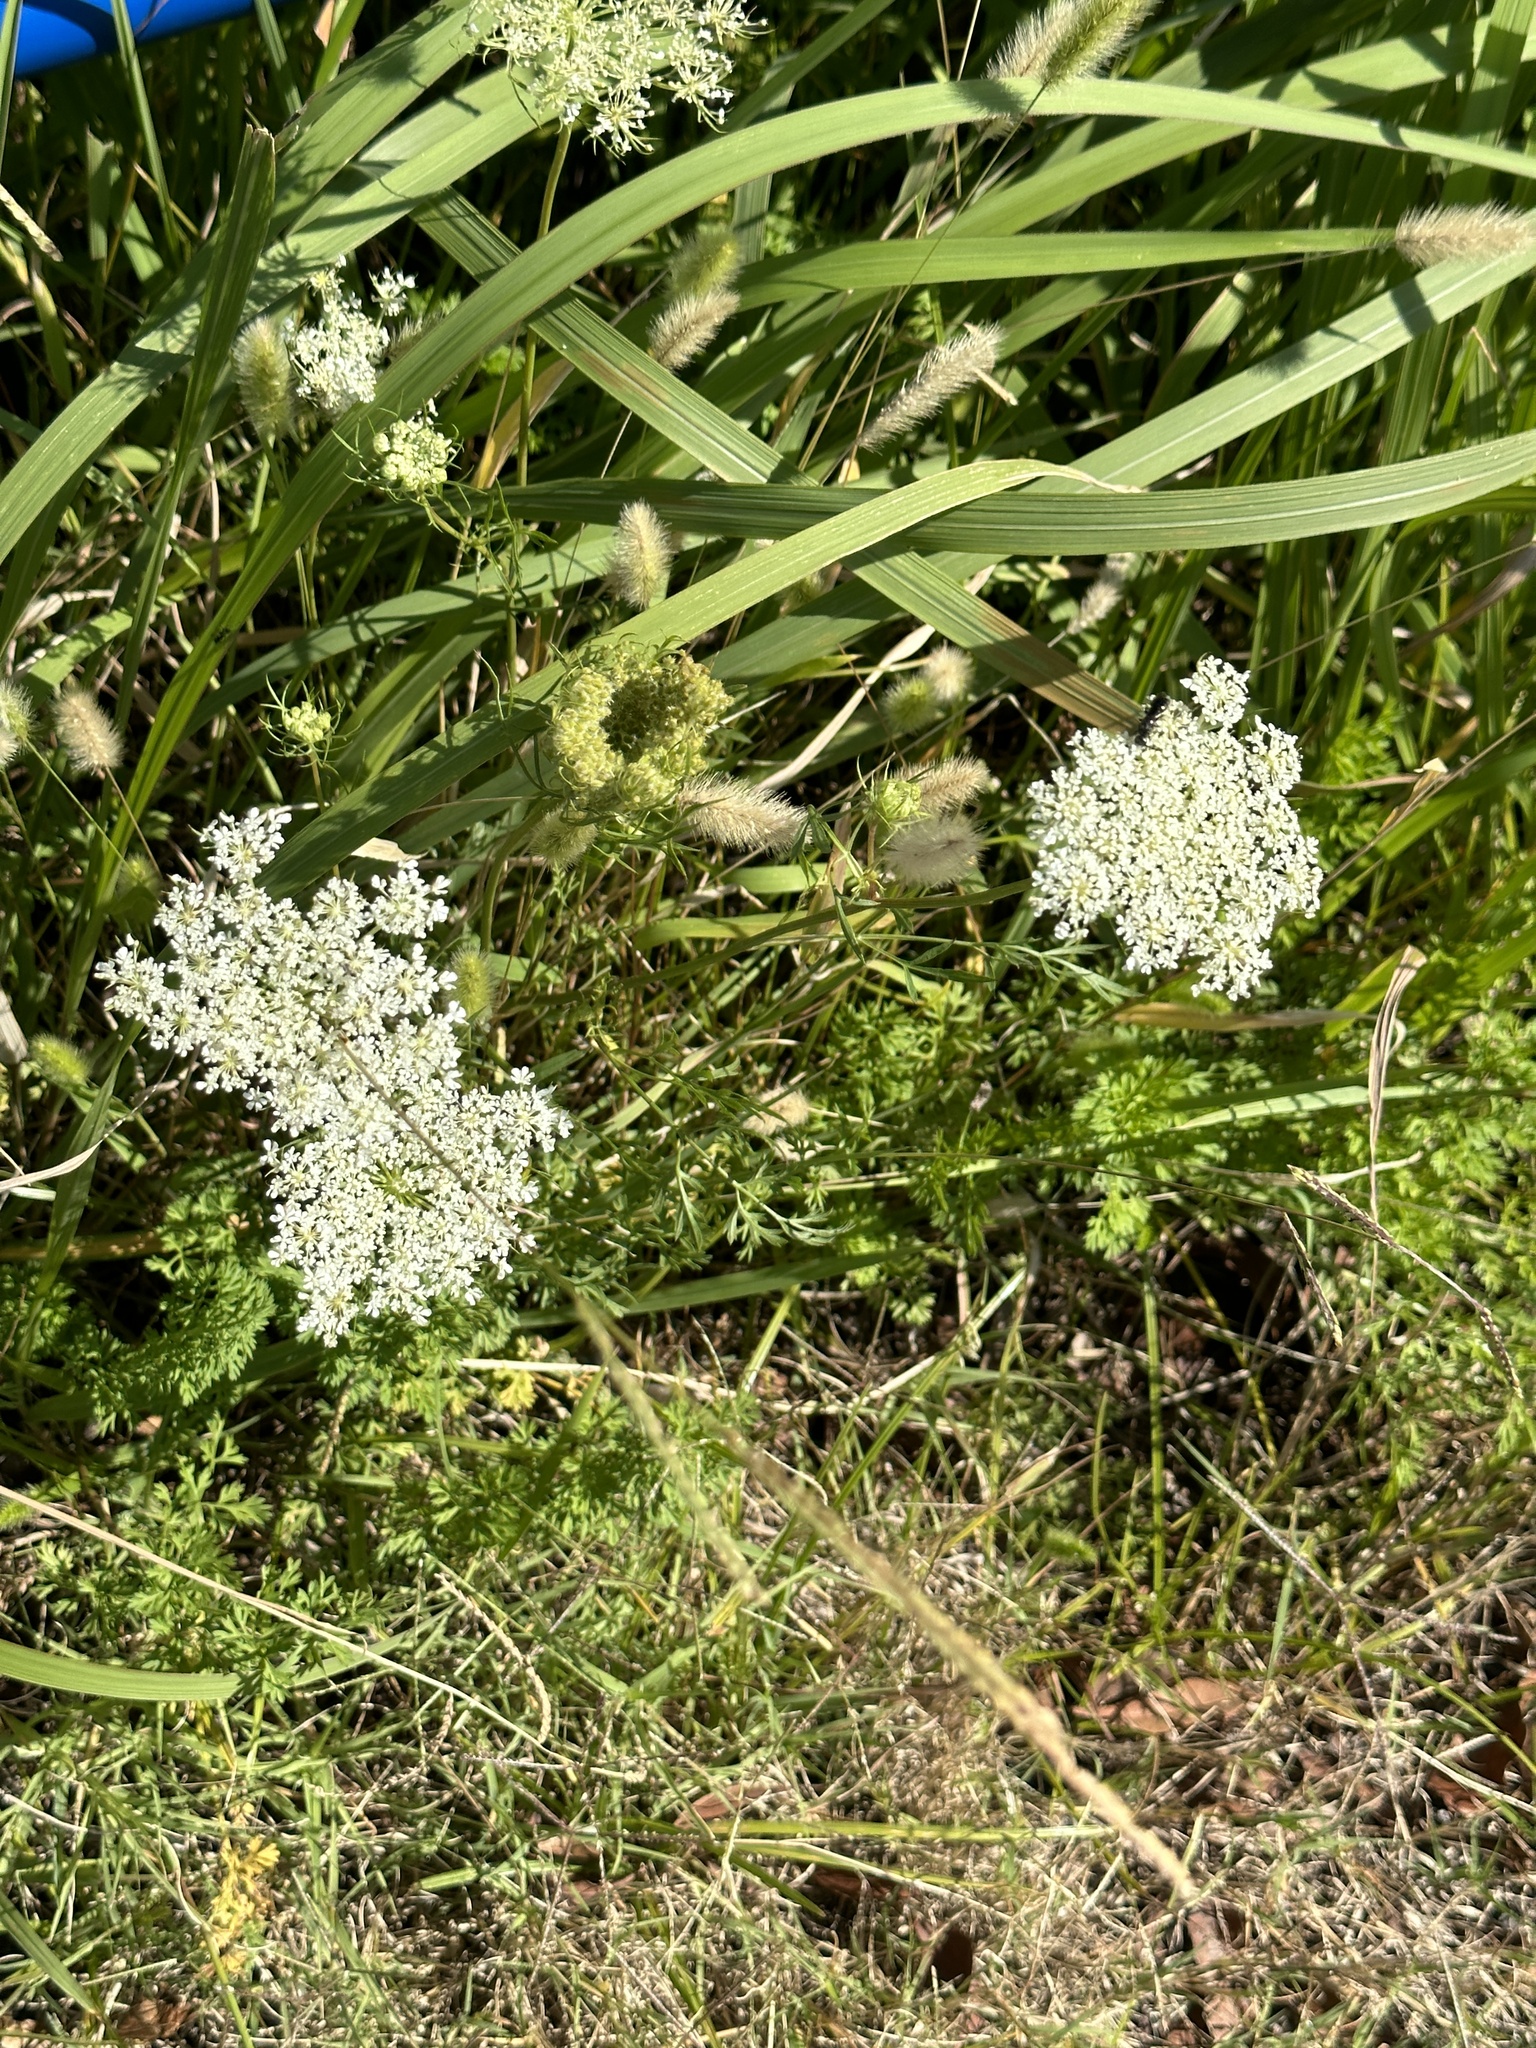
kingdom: Plantae
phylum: Tracheophyta
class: Magnoliopsida
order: Apiales
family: Apiaceae
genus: Daucus
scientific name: Daucus carota
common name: Wild carrot
